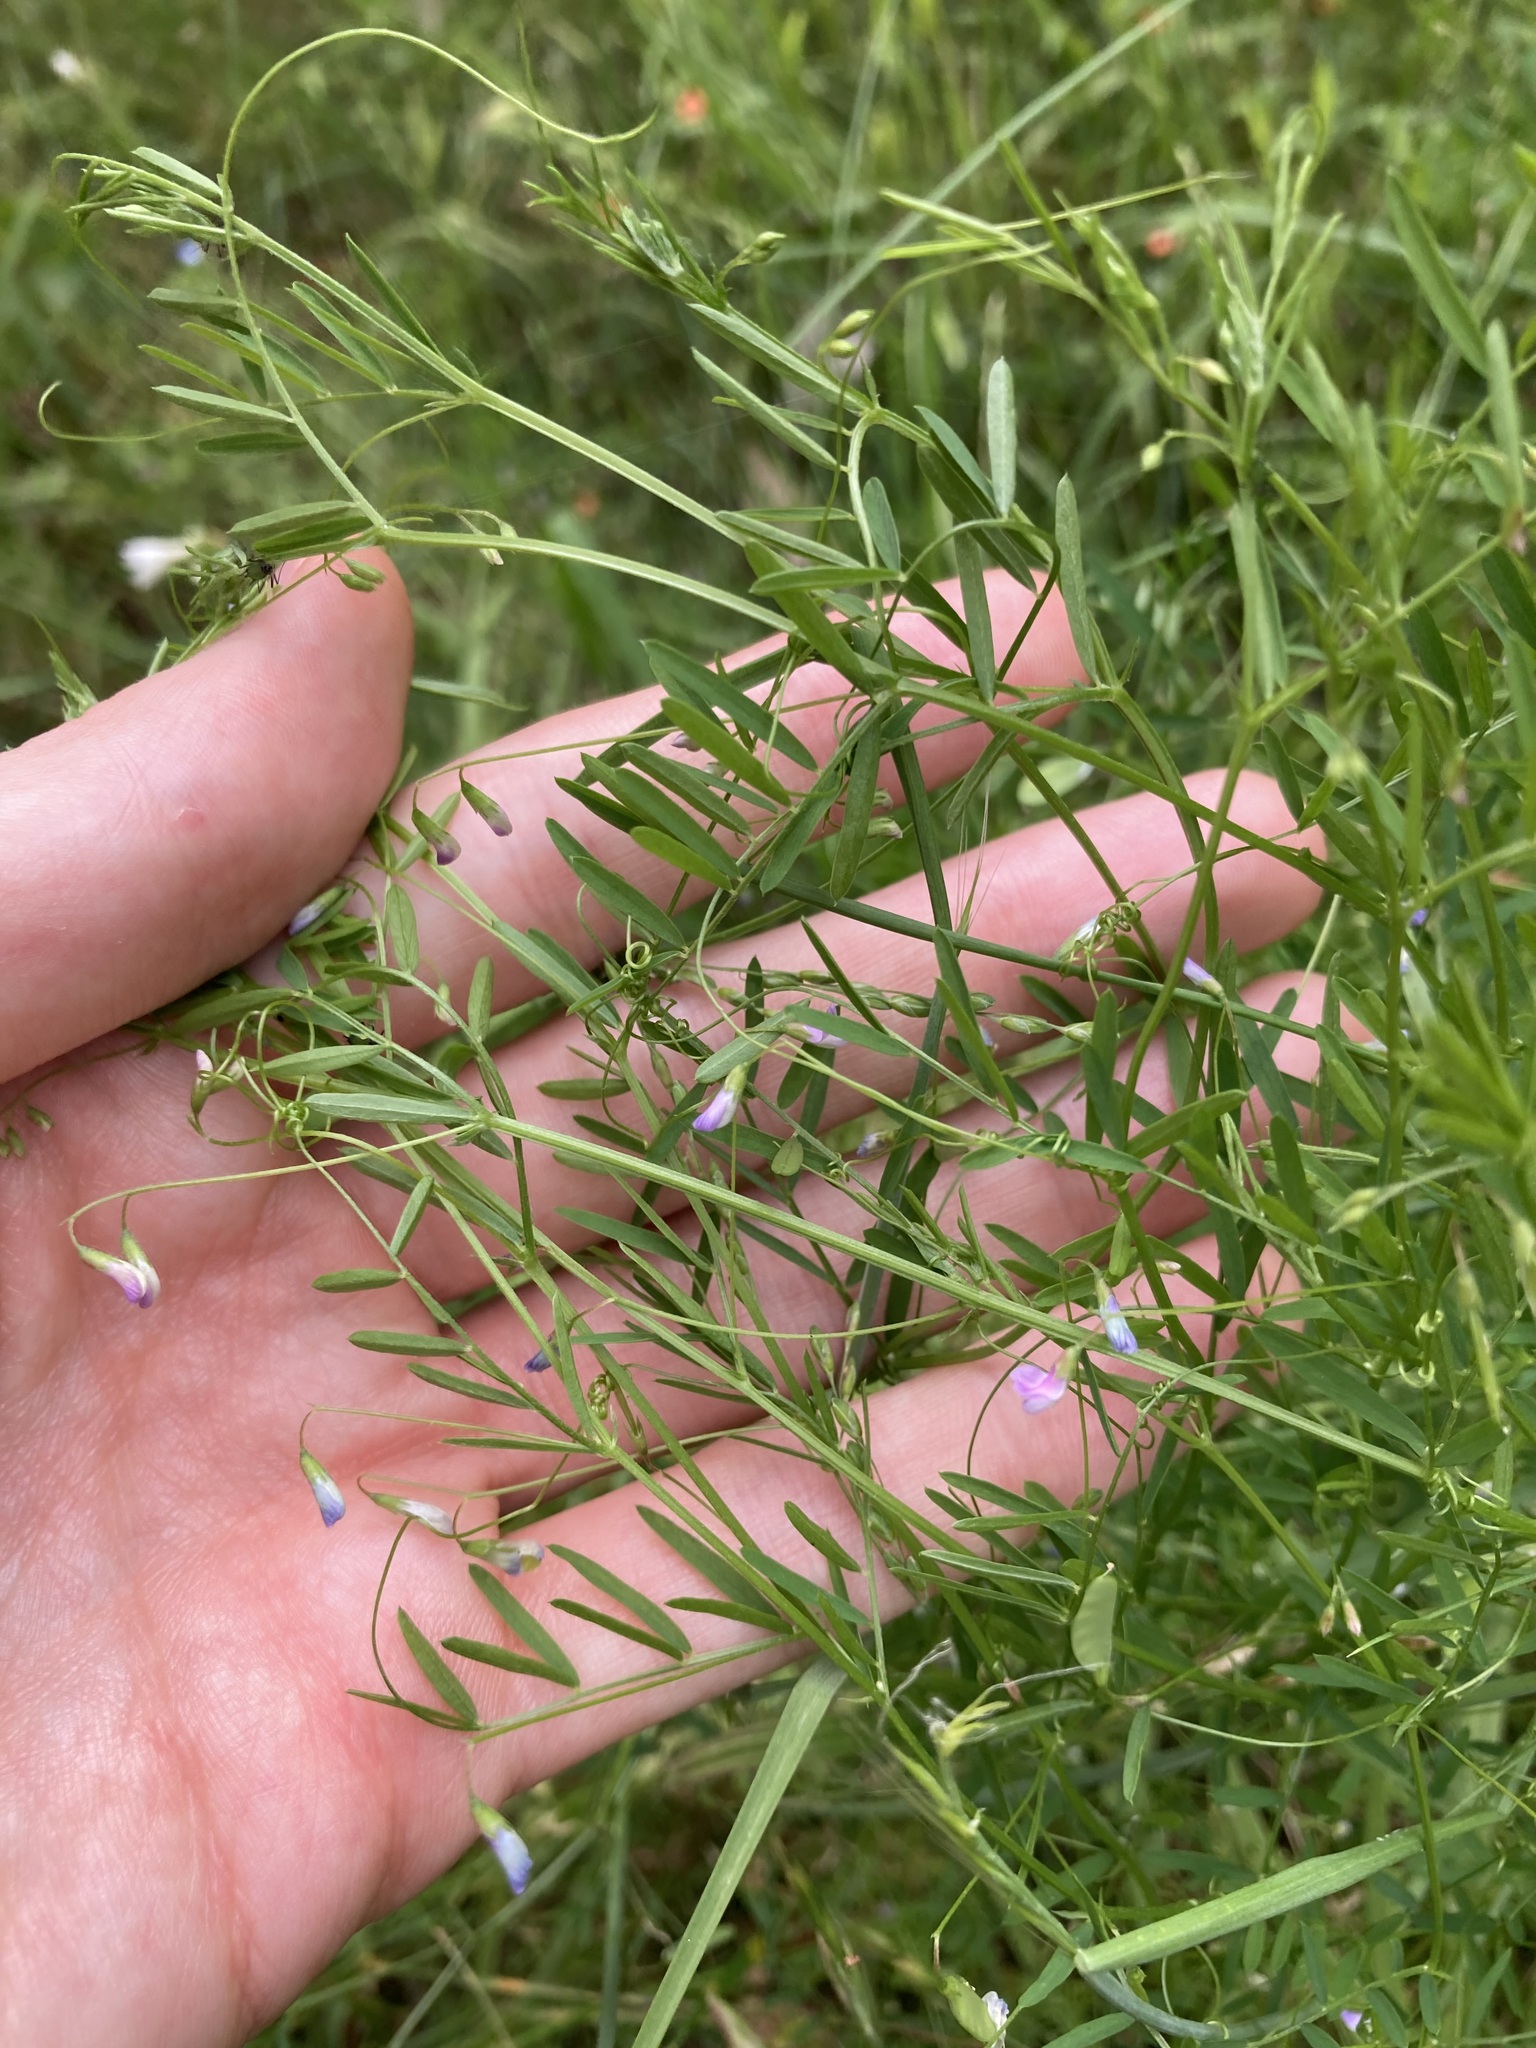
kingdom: Plantae
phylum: Tracheophyta
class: Magnoliopsida
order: Fabales
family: Fabaceae
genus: Vicia
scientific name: Vicia tetrasperma
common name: Smooth tare
